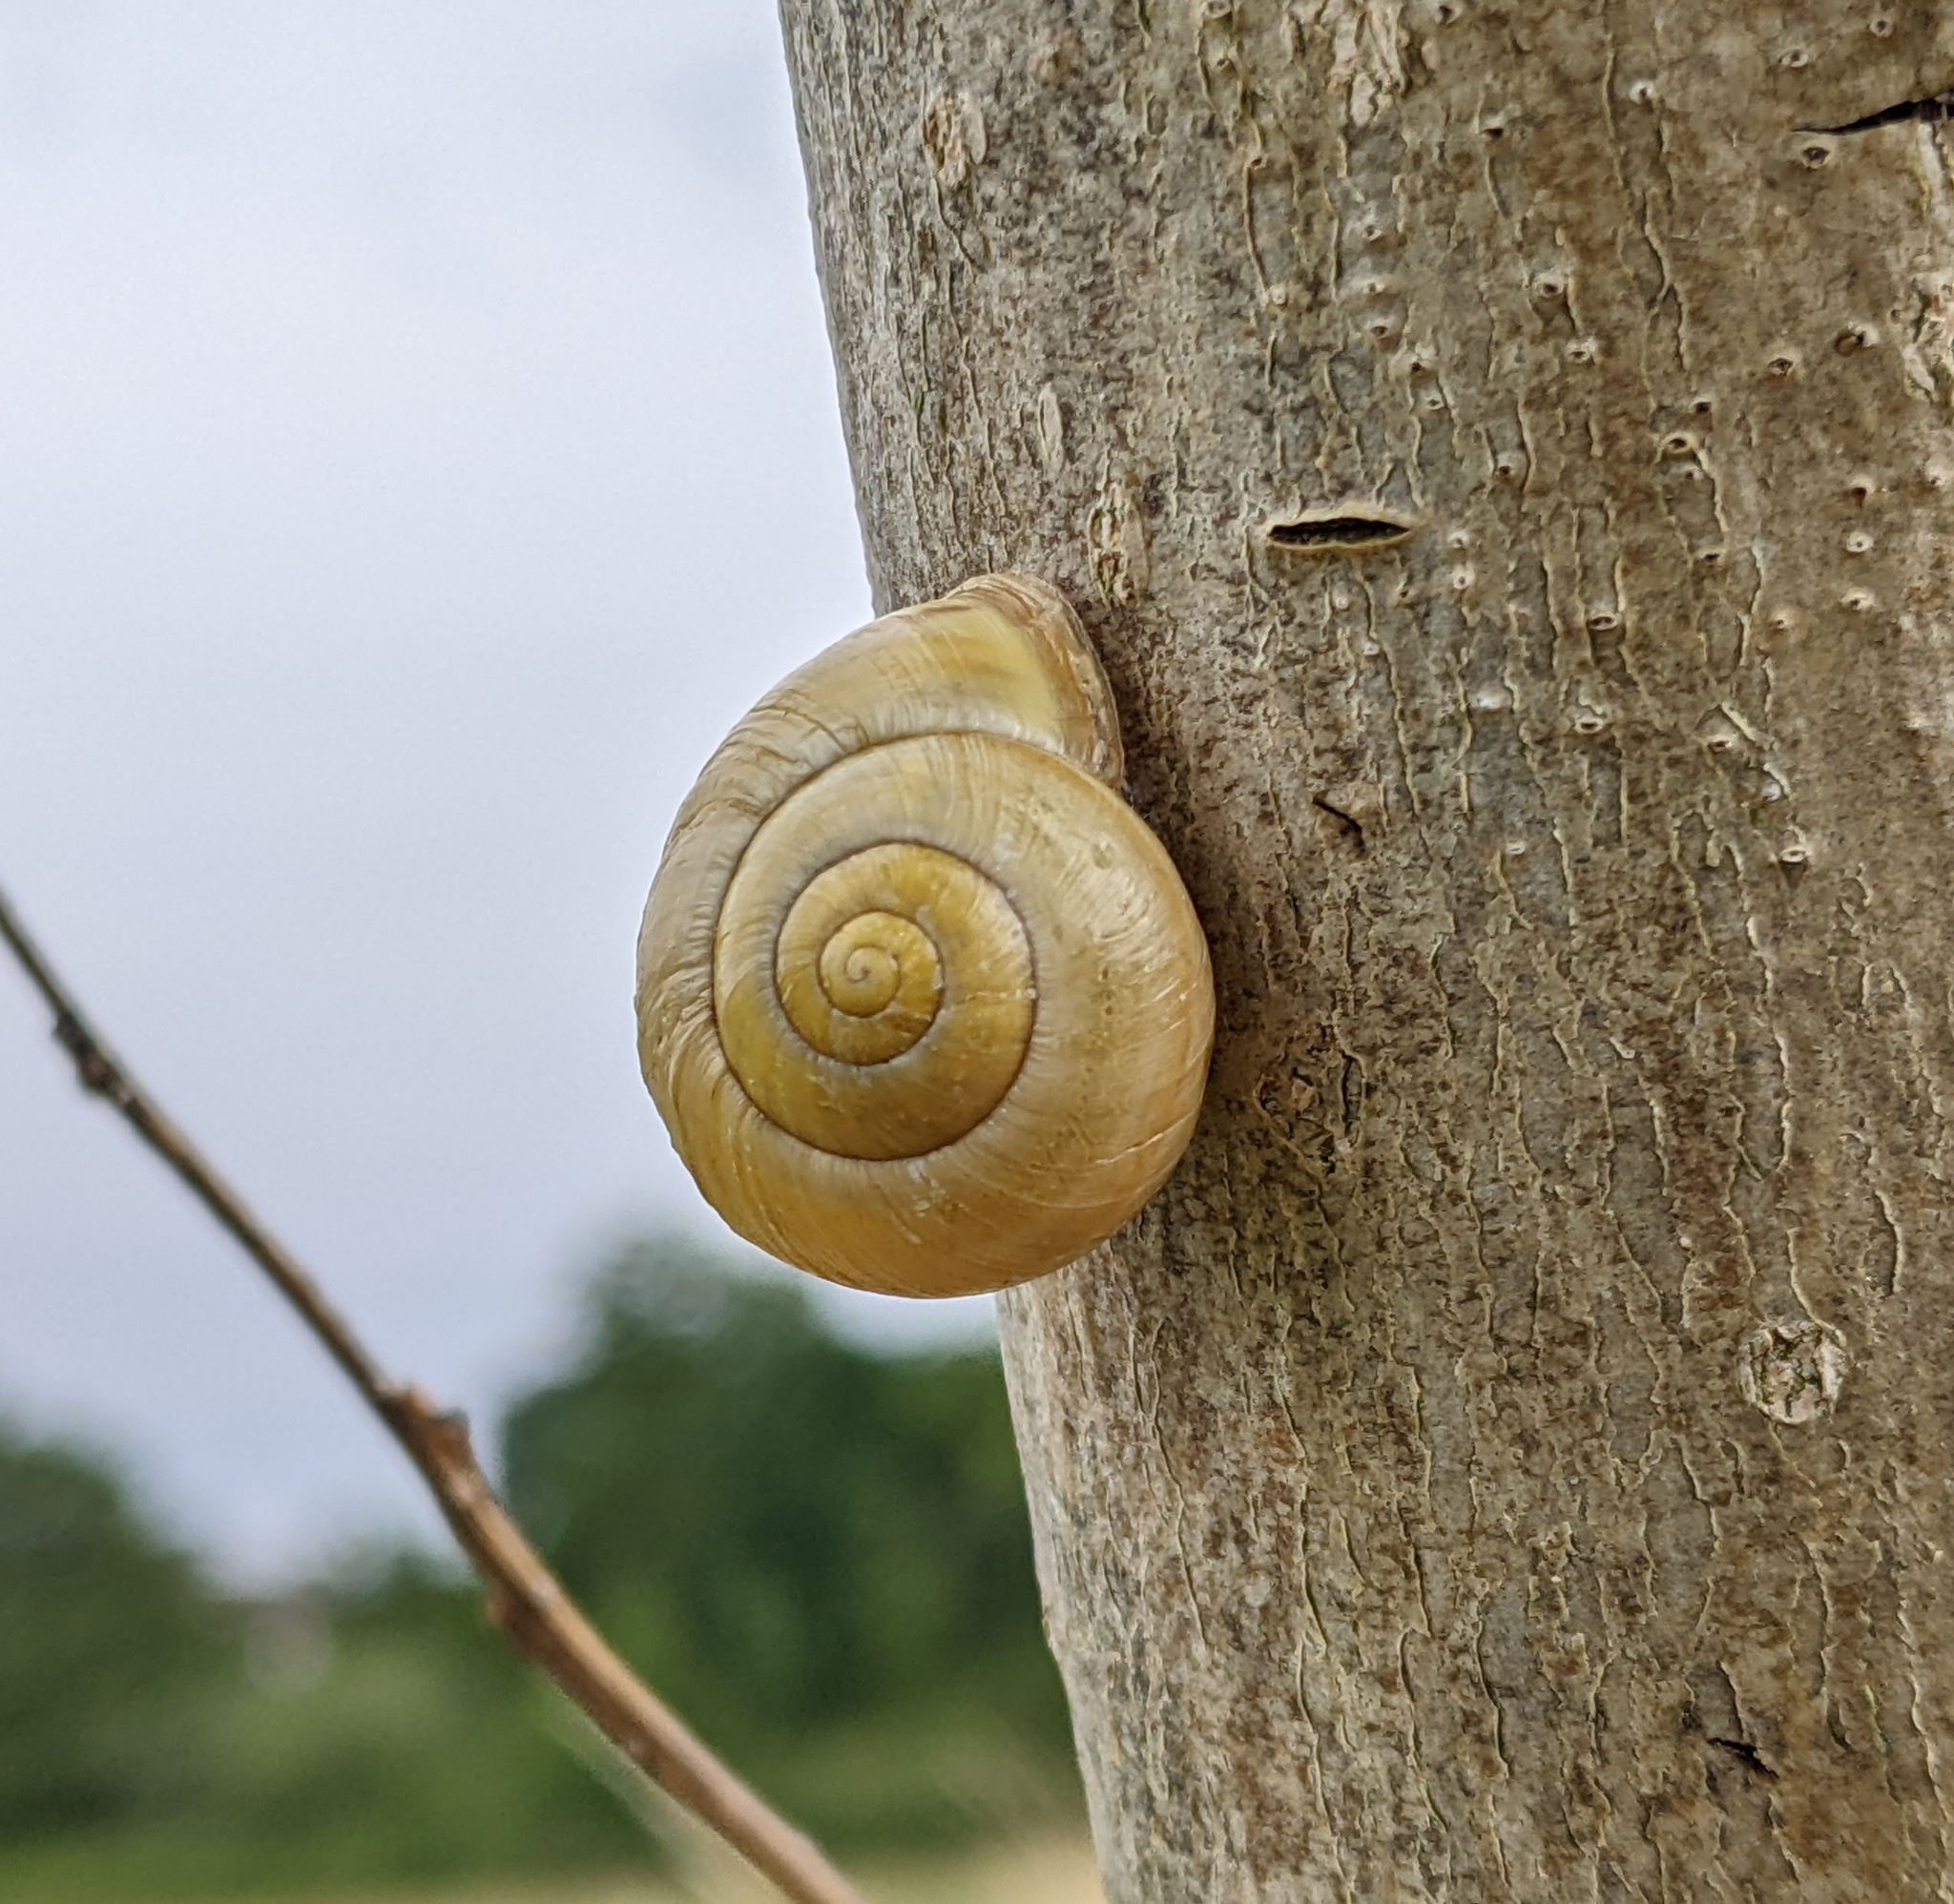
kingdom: Animalia
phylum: Mollusca
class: Gastropoda
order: Stylommatophora
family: Helicidae
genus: Cepaea
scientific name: Cepaea hortensis
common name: White-lip gardensnail
